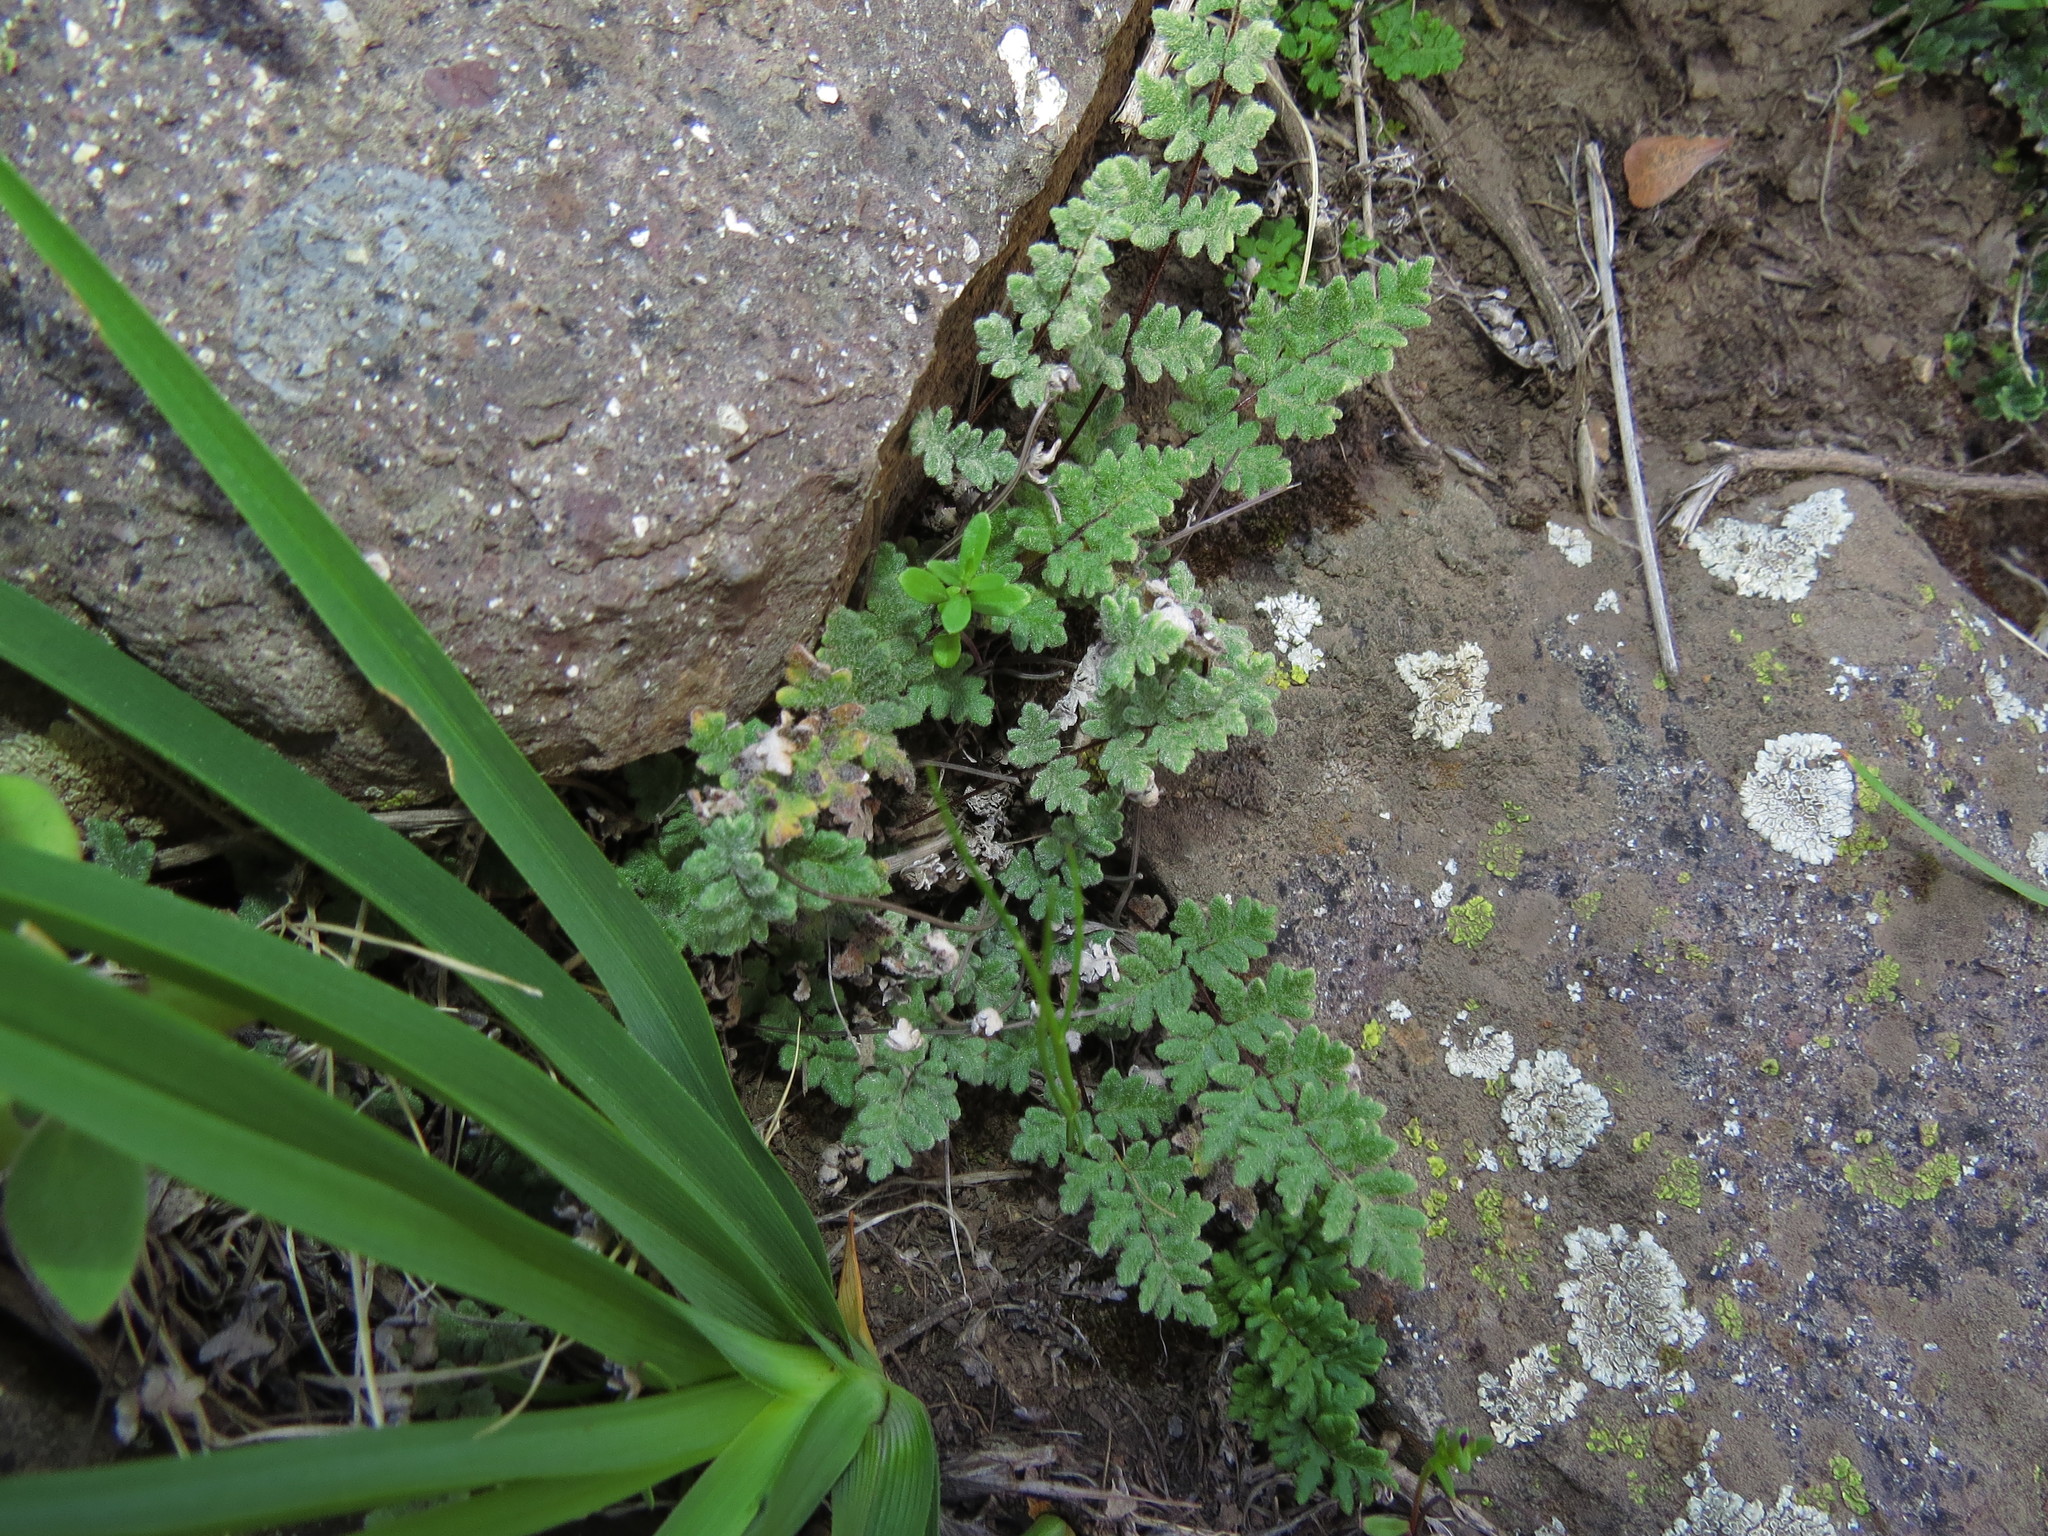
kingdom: Plantae
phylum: Tracheophyta
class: Polypodiopsida
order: Polypodiales
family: Pteridaceae
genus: Cheilanthes
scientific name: Cheilanthes hypoleuca
